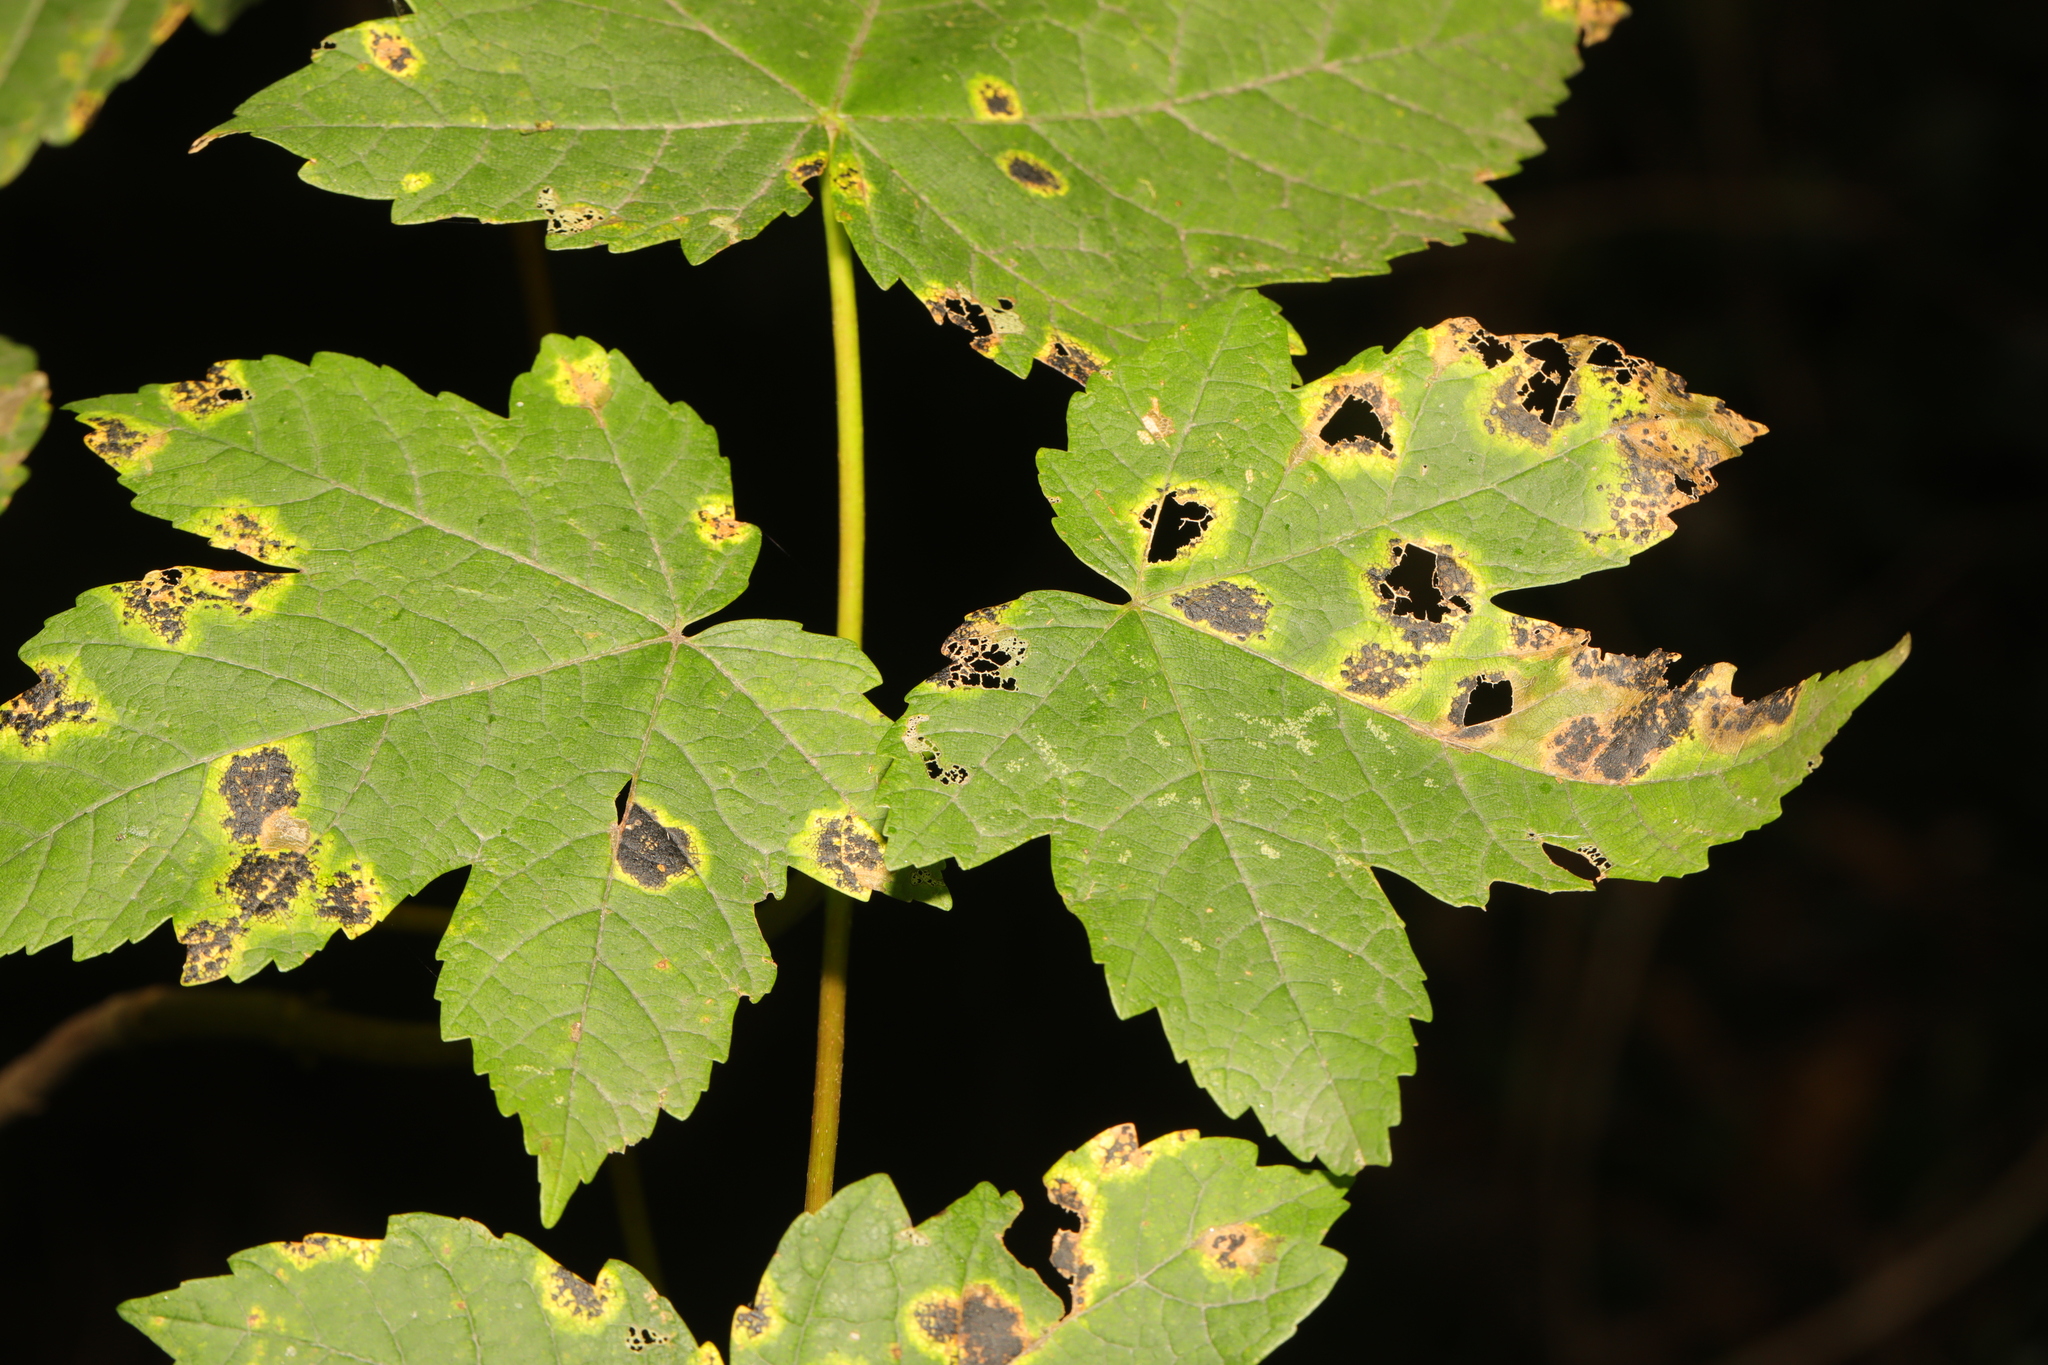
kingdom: Plantae
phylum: Tracheophyta
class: Magnoliopsida
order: Sapindales
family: Sapindaceae
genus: Acer
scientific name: Acer pseudoplatanus
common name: Sycamore
